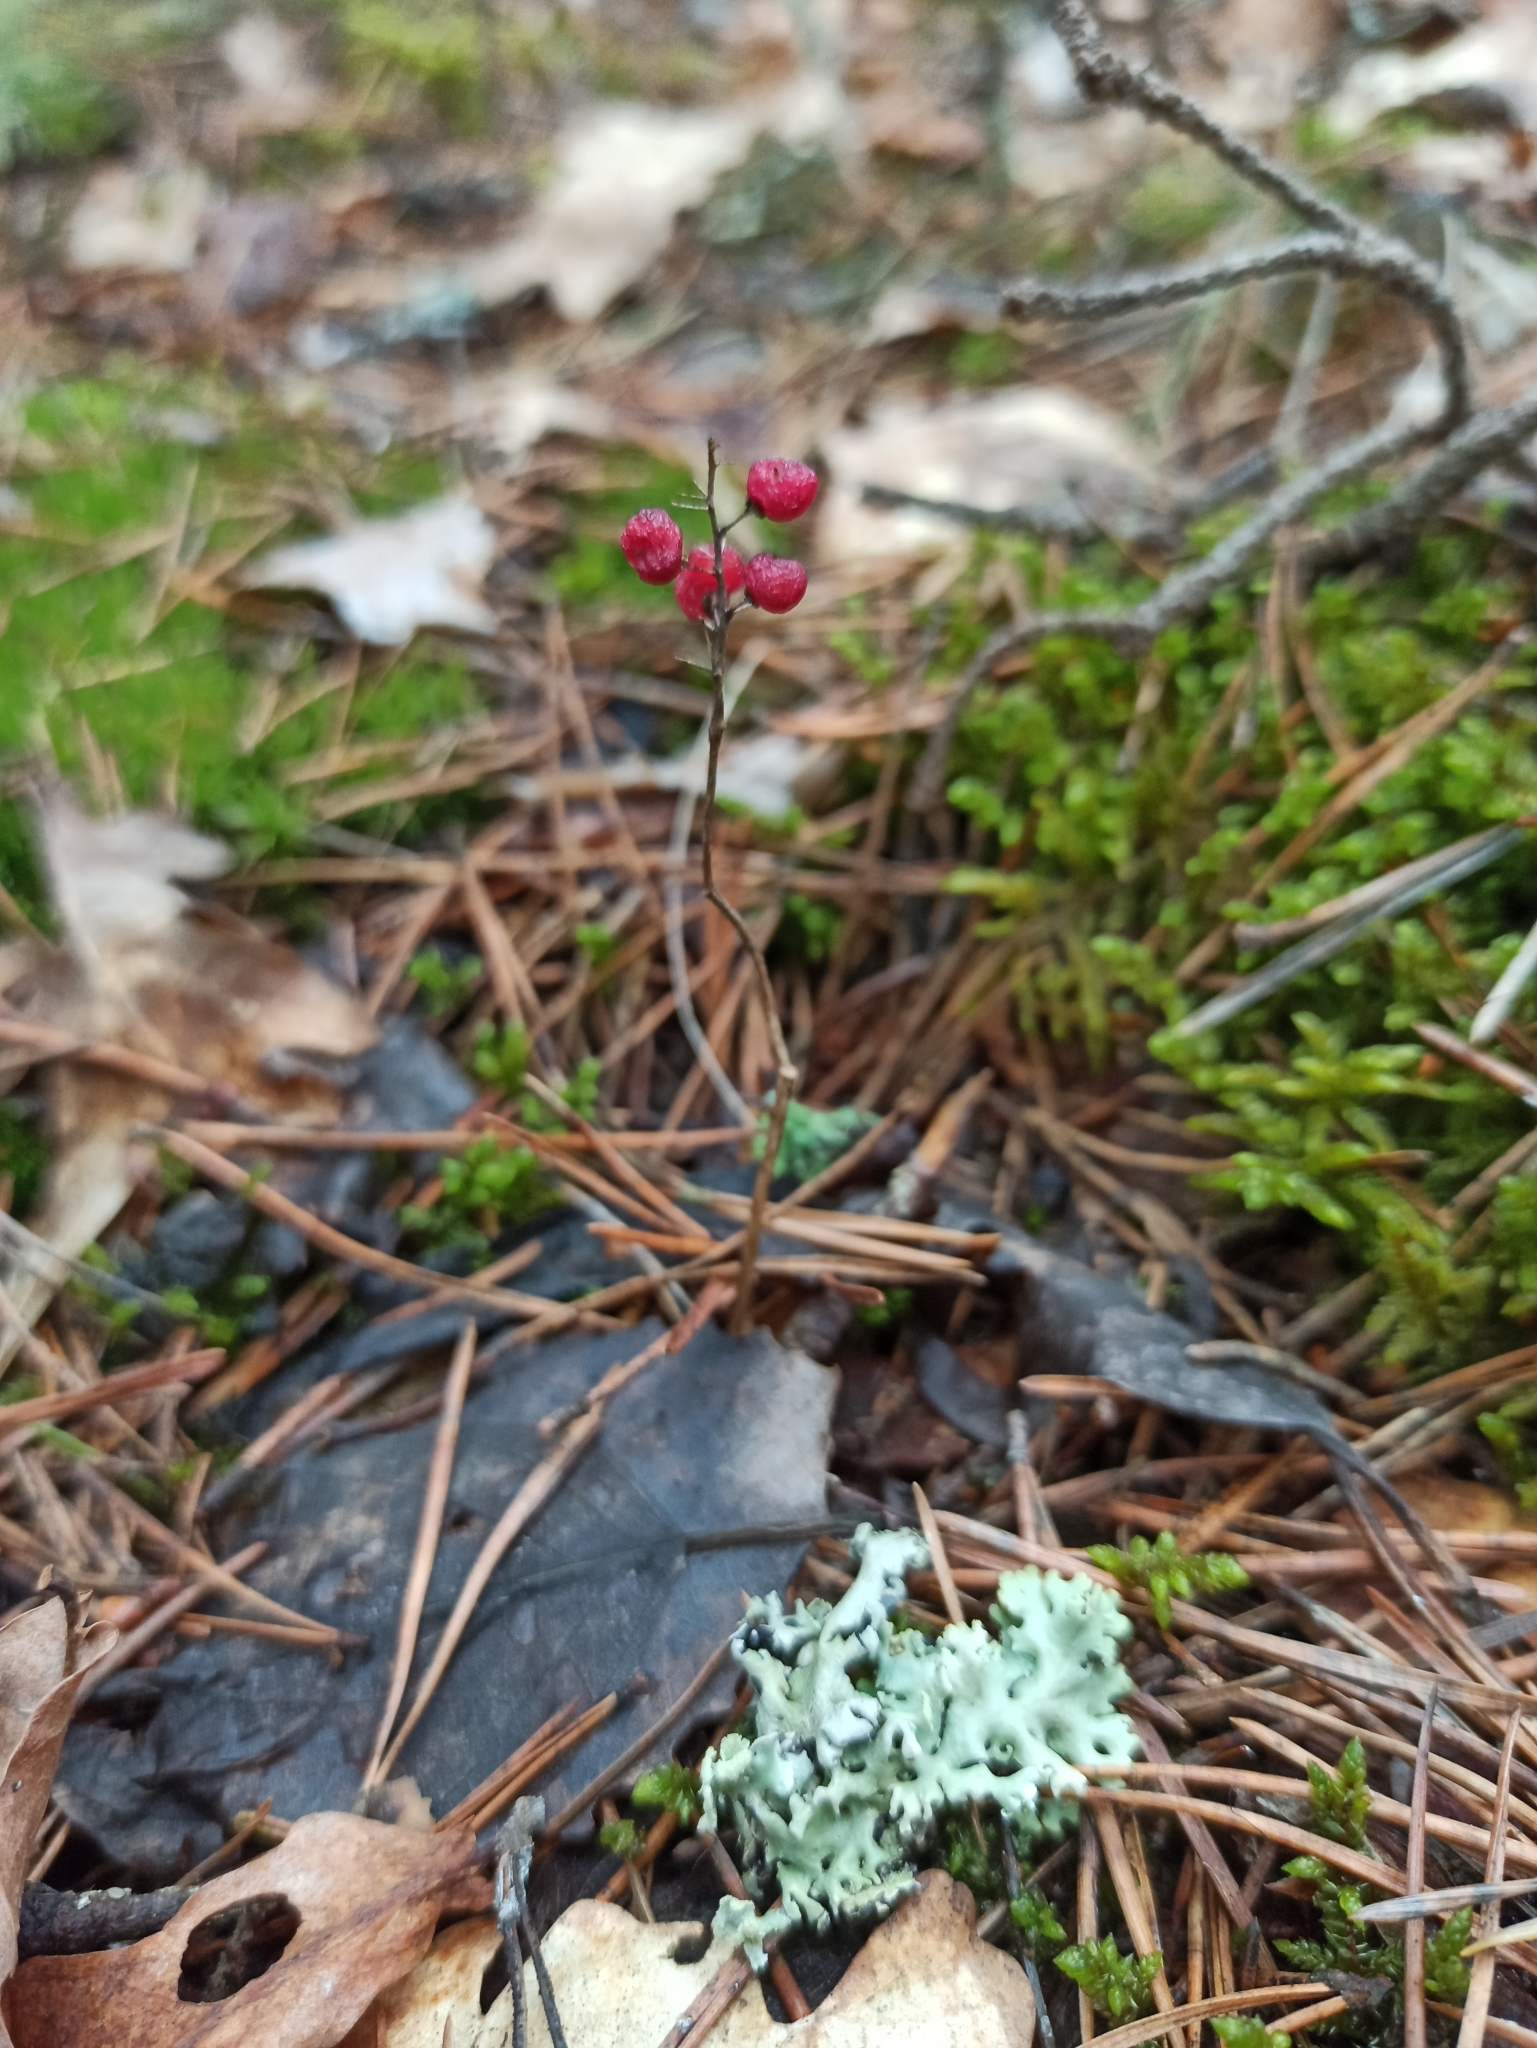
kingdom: Plantae
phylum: Tracheophyta
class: Liliopsida
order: Asparagales
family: Asparagaceae
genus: Maianthemum
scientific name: Maianthemum bifolium
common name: May lily
